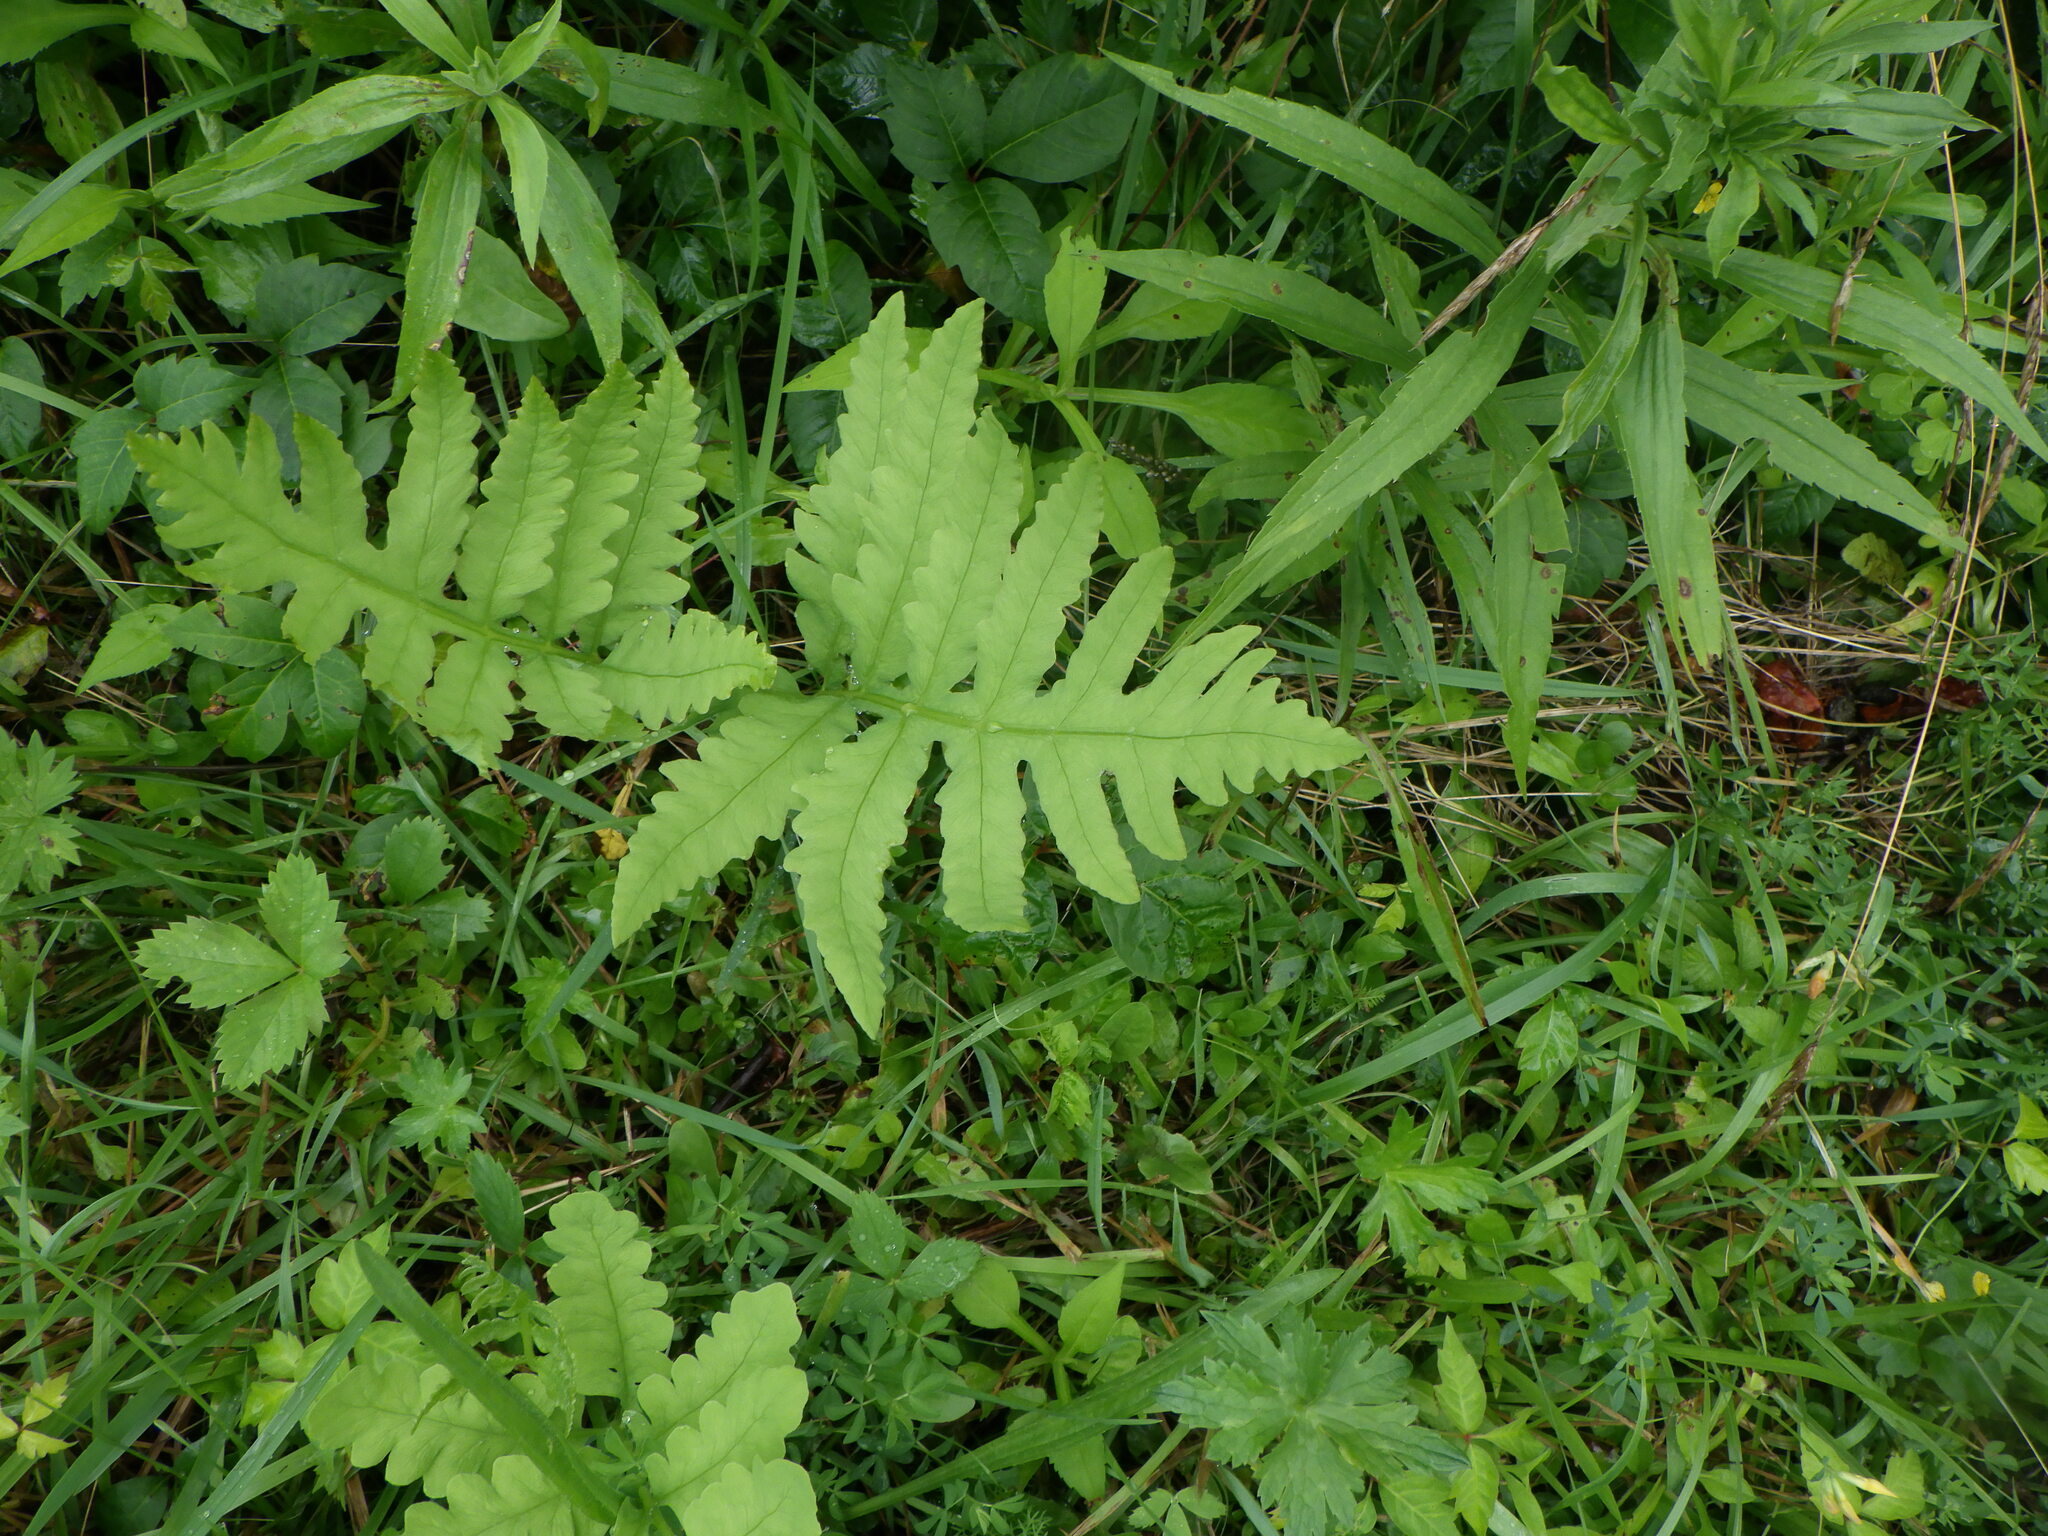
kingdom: Plantae
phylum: Tracheophyta
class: Polypodiopsida
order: Polypodiales
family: Onocleaceae
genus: Onoclea
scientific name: Onoclea sensibilis
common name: Sensitive fern
